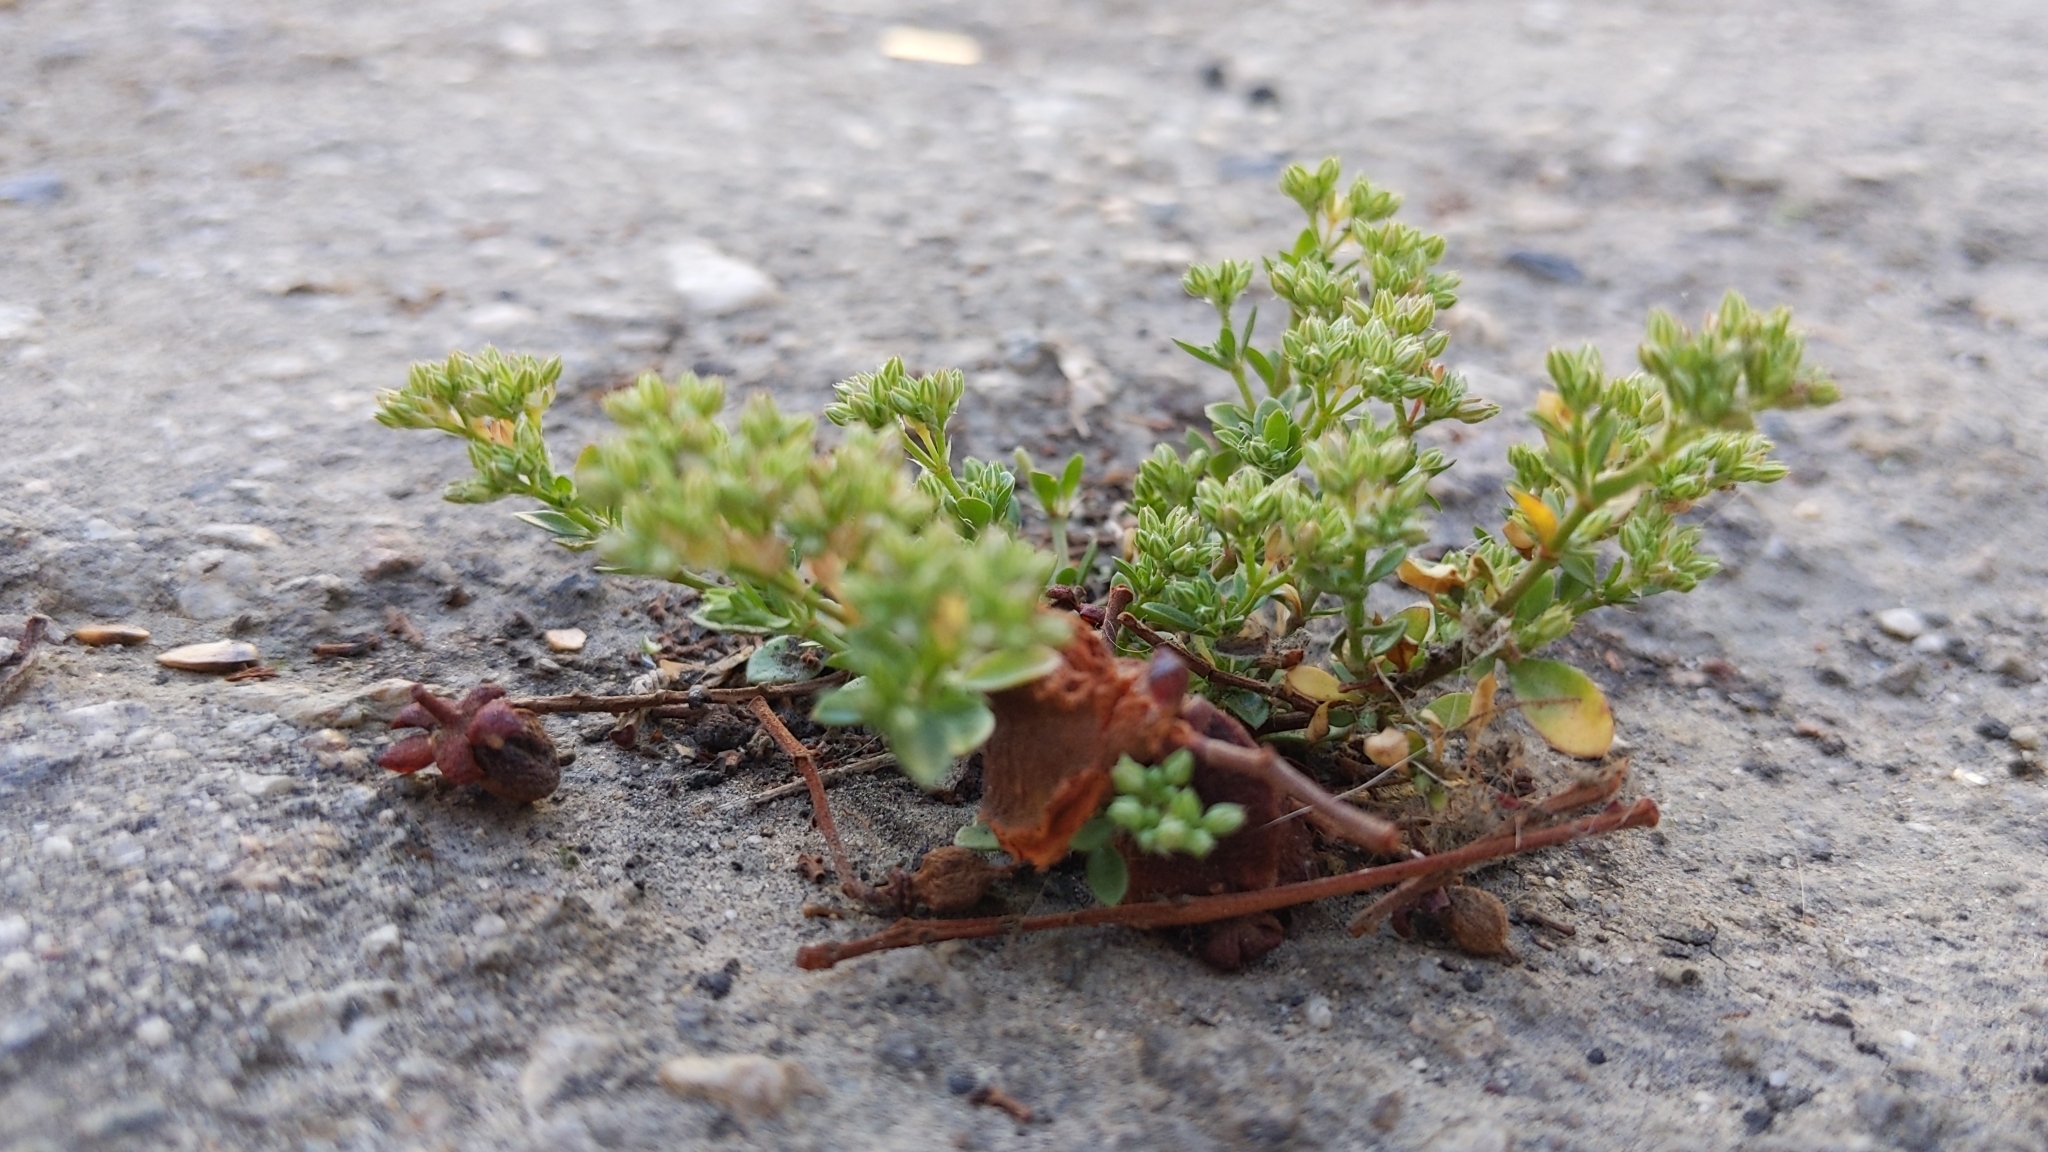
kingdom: Plantae
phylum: Tracheophyta
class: Magnoliopsida
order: Caryophyllales
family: Caryophyllaceae
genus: Polycarpon
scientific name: Polycarpon tetraphyllum
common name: Four-leaved all-seed
